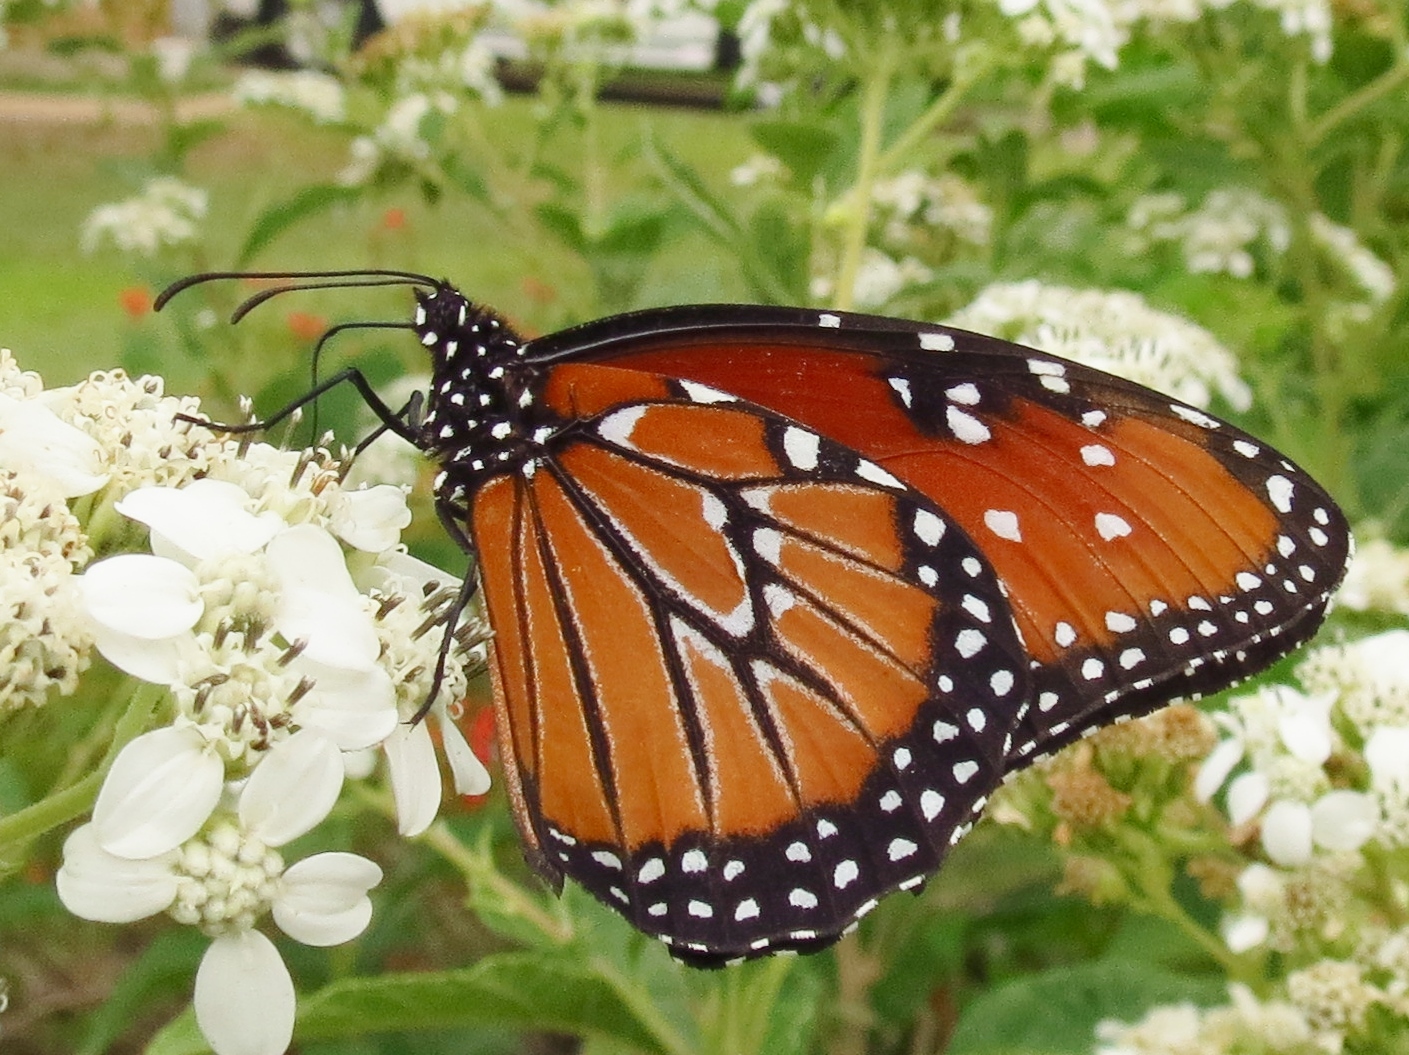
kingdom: Animalia
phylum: Arthropoda
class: Insecta
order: Lepidoptera
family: Nymphalidae
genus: Danaus
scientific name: Danaus gilippus
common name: Queen
